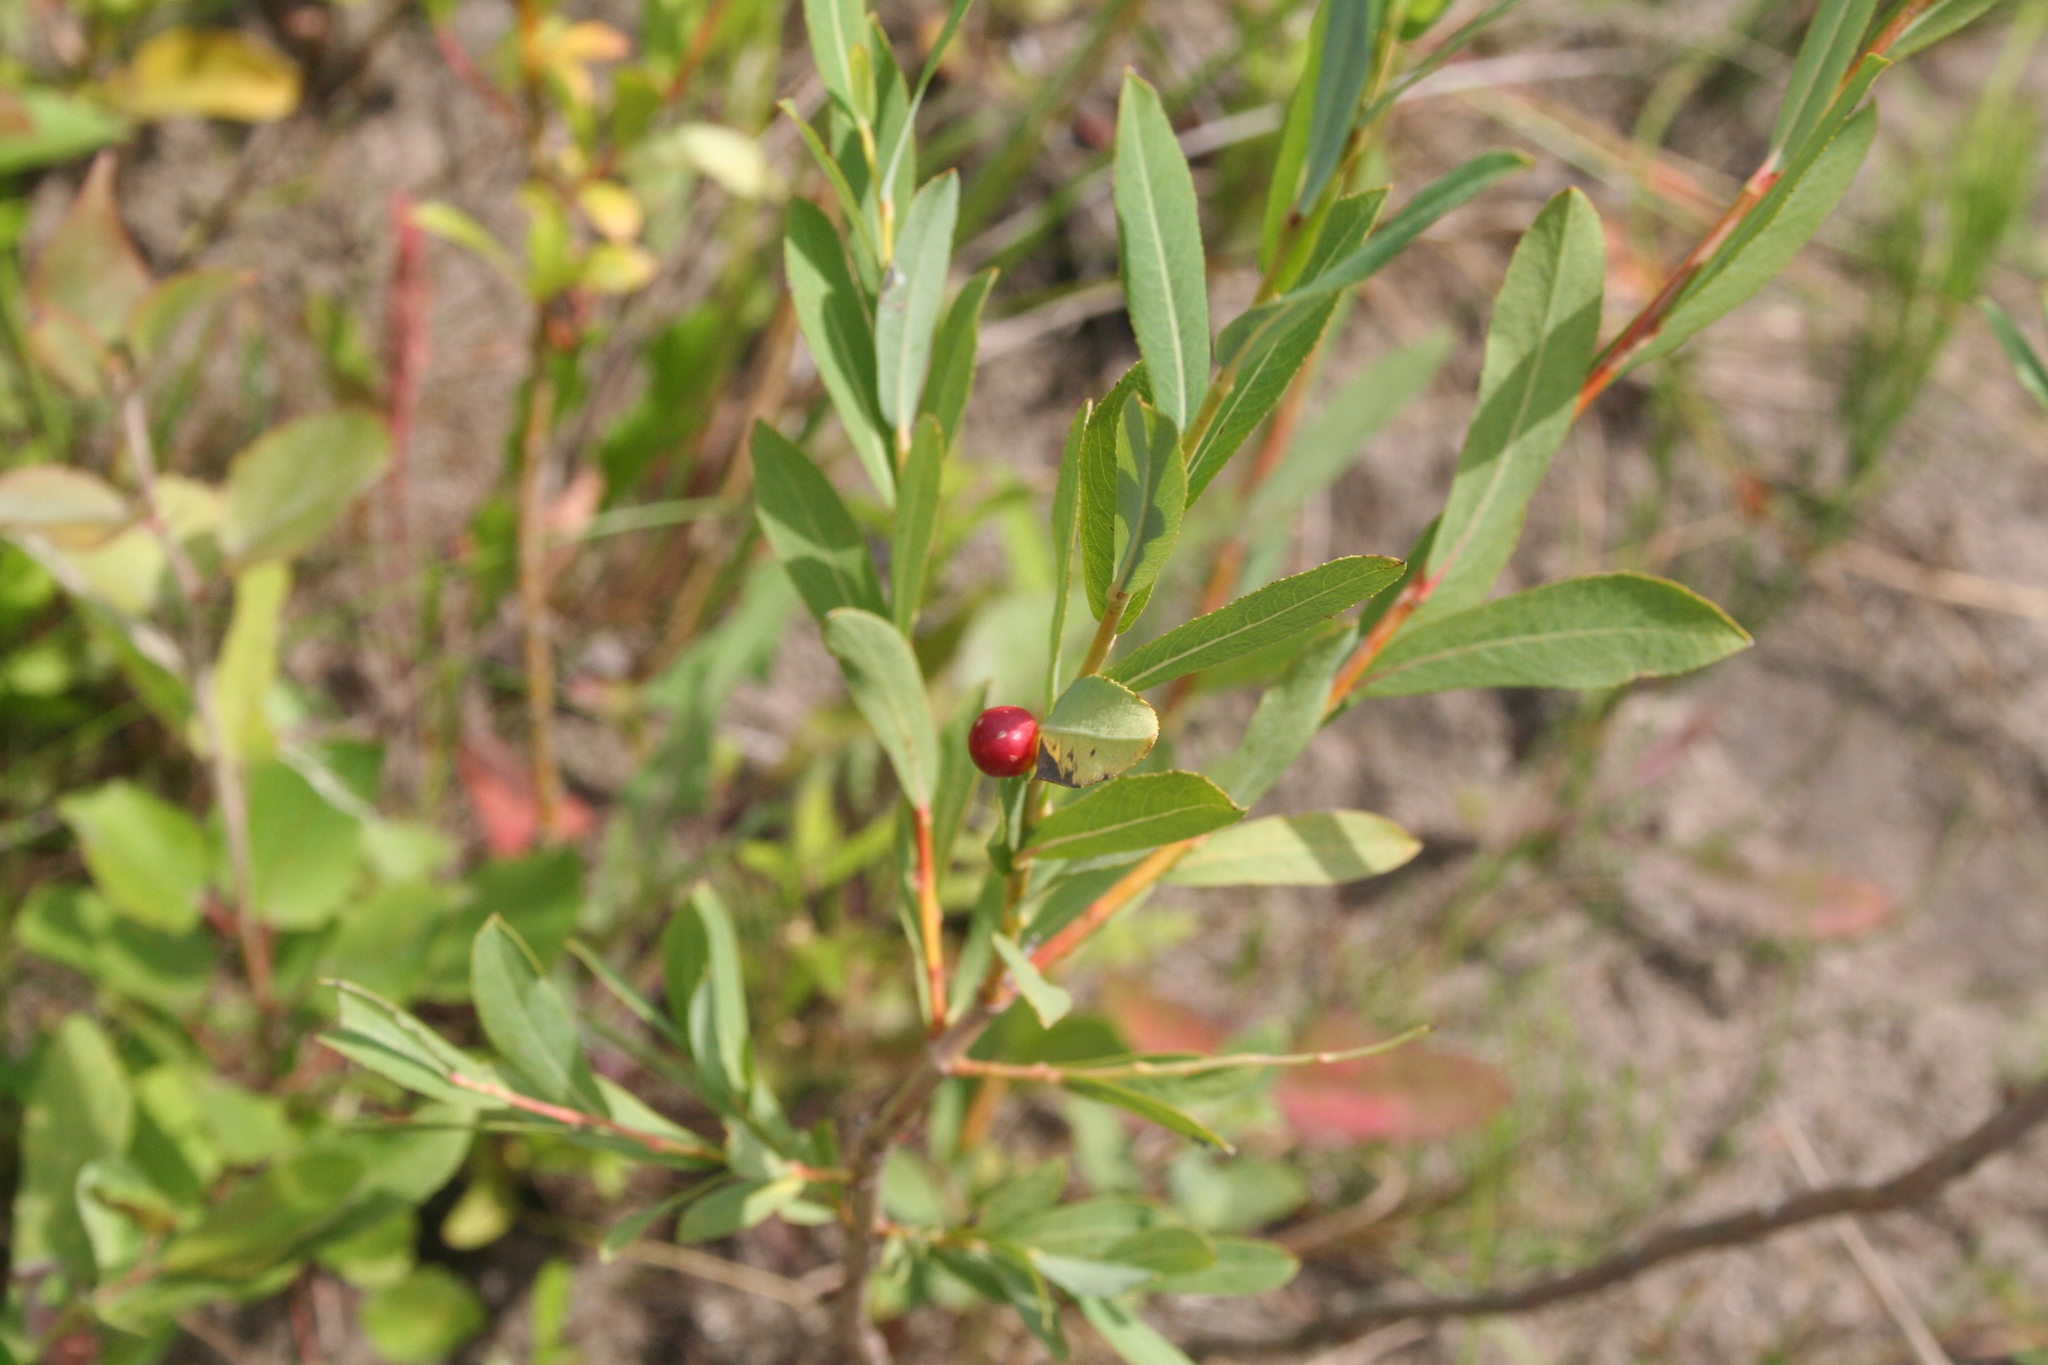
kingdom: Animalia
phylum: Arthropoda
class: Insecta
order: Hymenoptera
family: Tenthredinidae
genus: Pontania
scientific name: Pontania proxima
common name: Common sawfly
